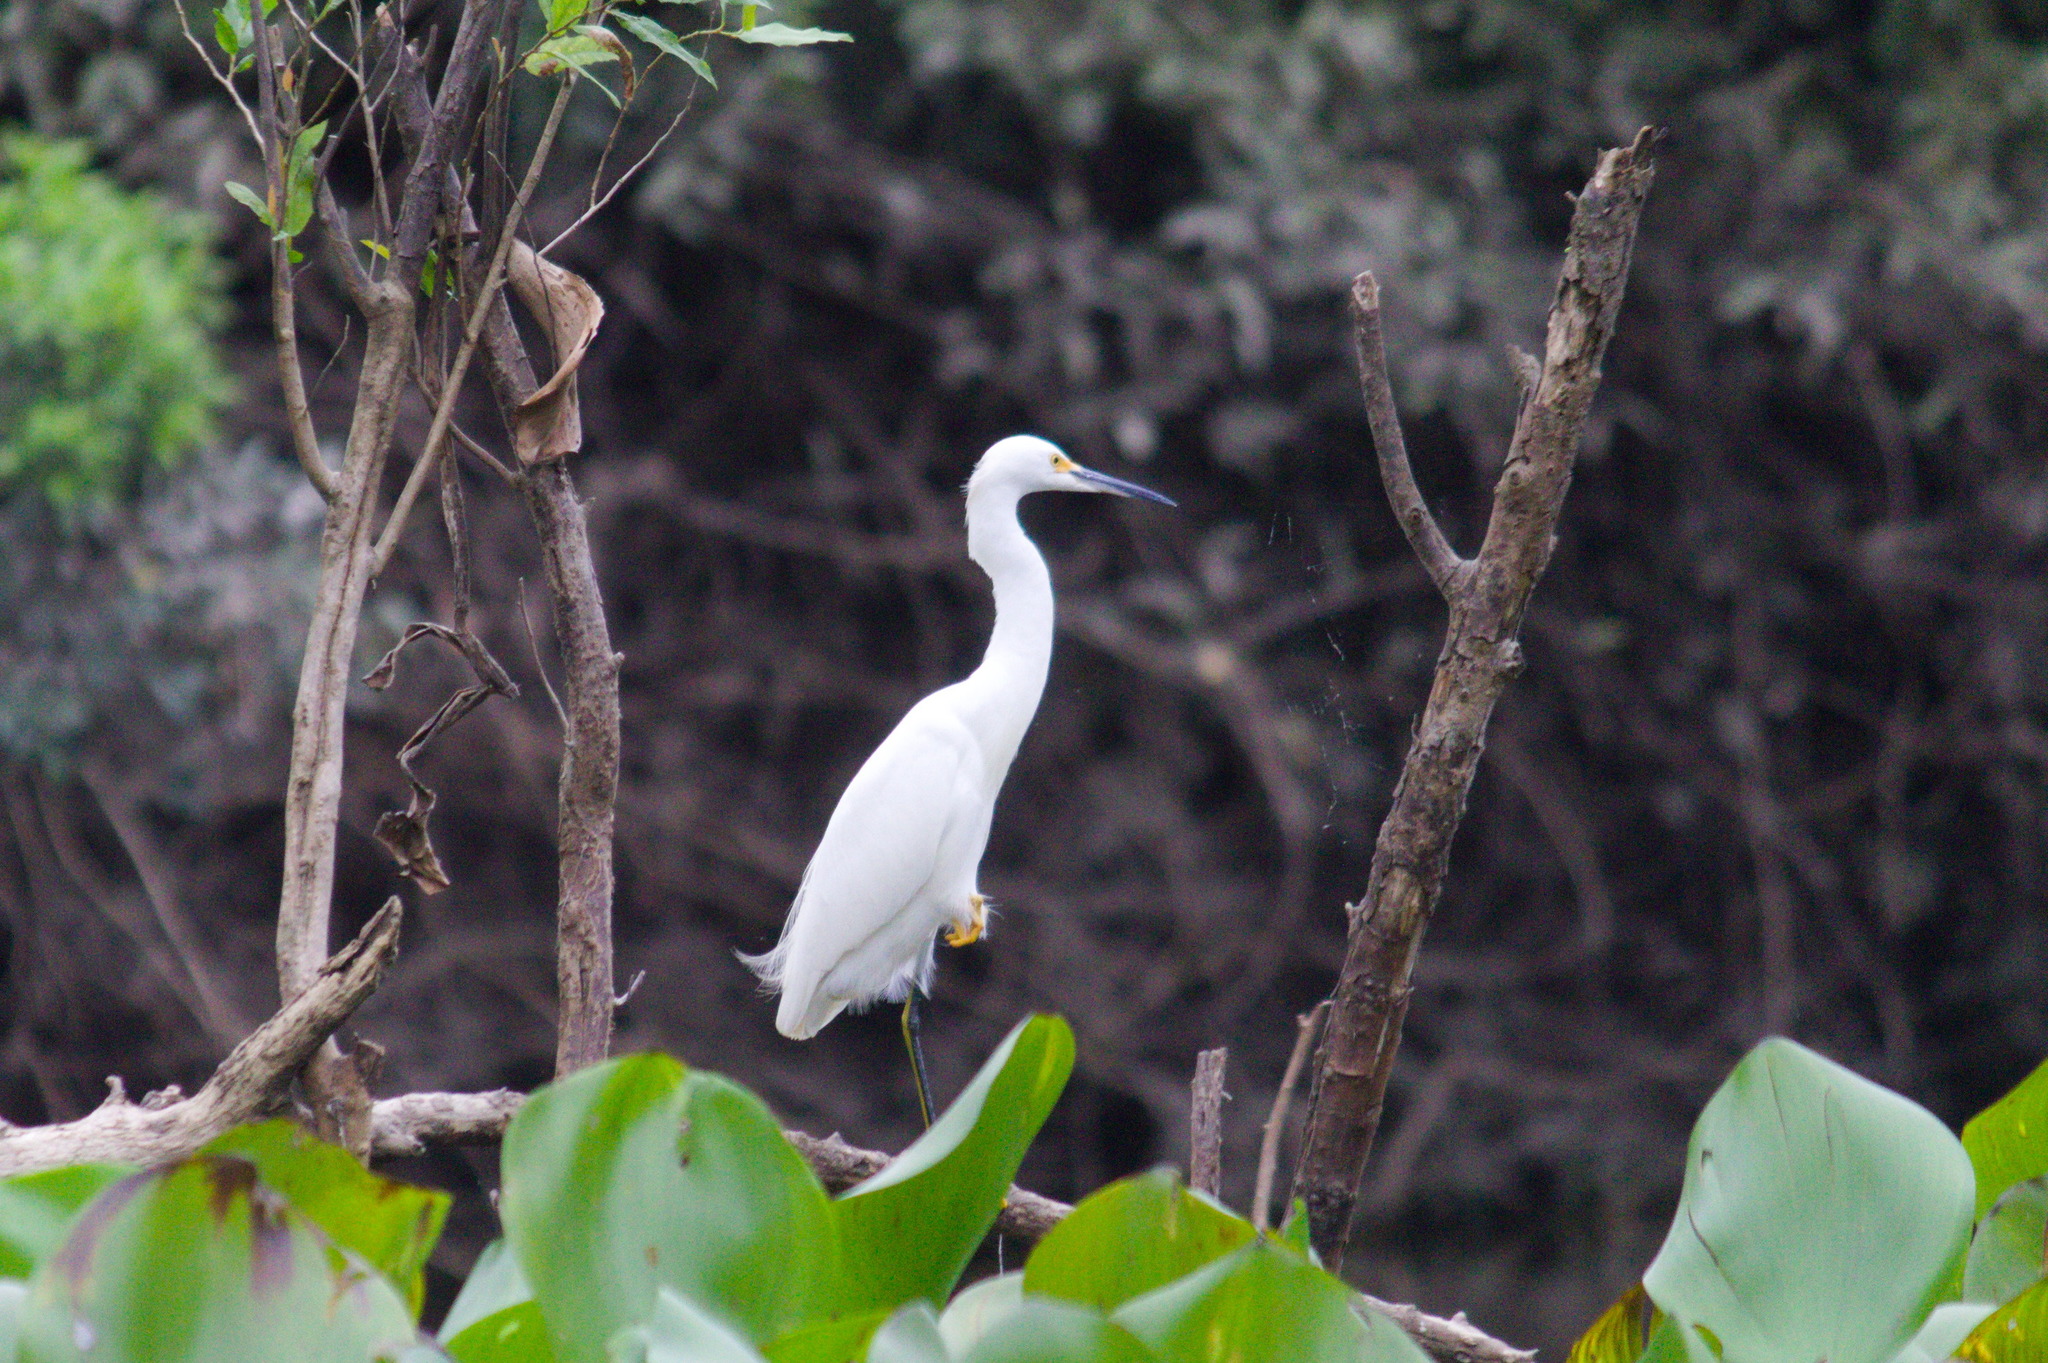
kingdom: Animalia
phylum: Chordata
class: Aves
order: Pelecaniformes
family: Ardeidae
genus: Egretta
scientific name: Egretta thula
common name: Snowy egret
